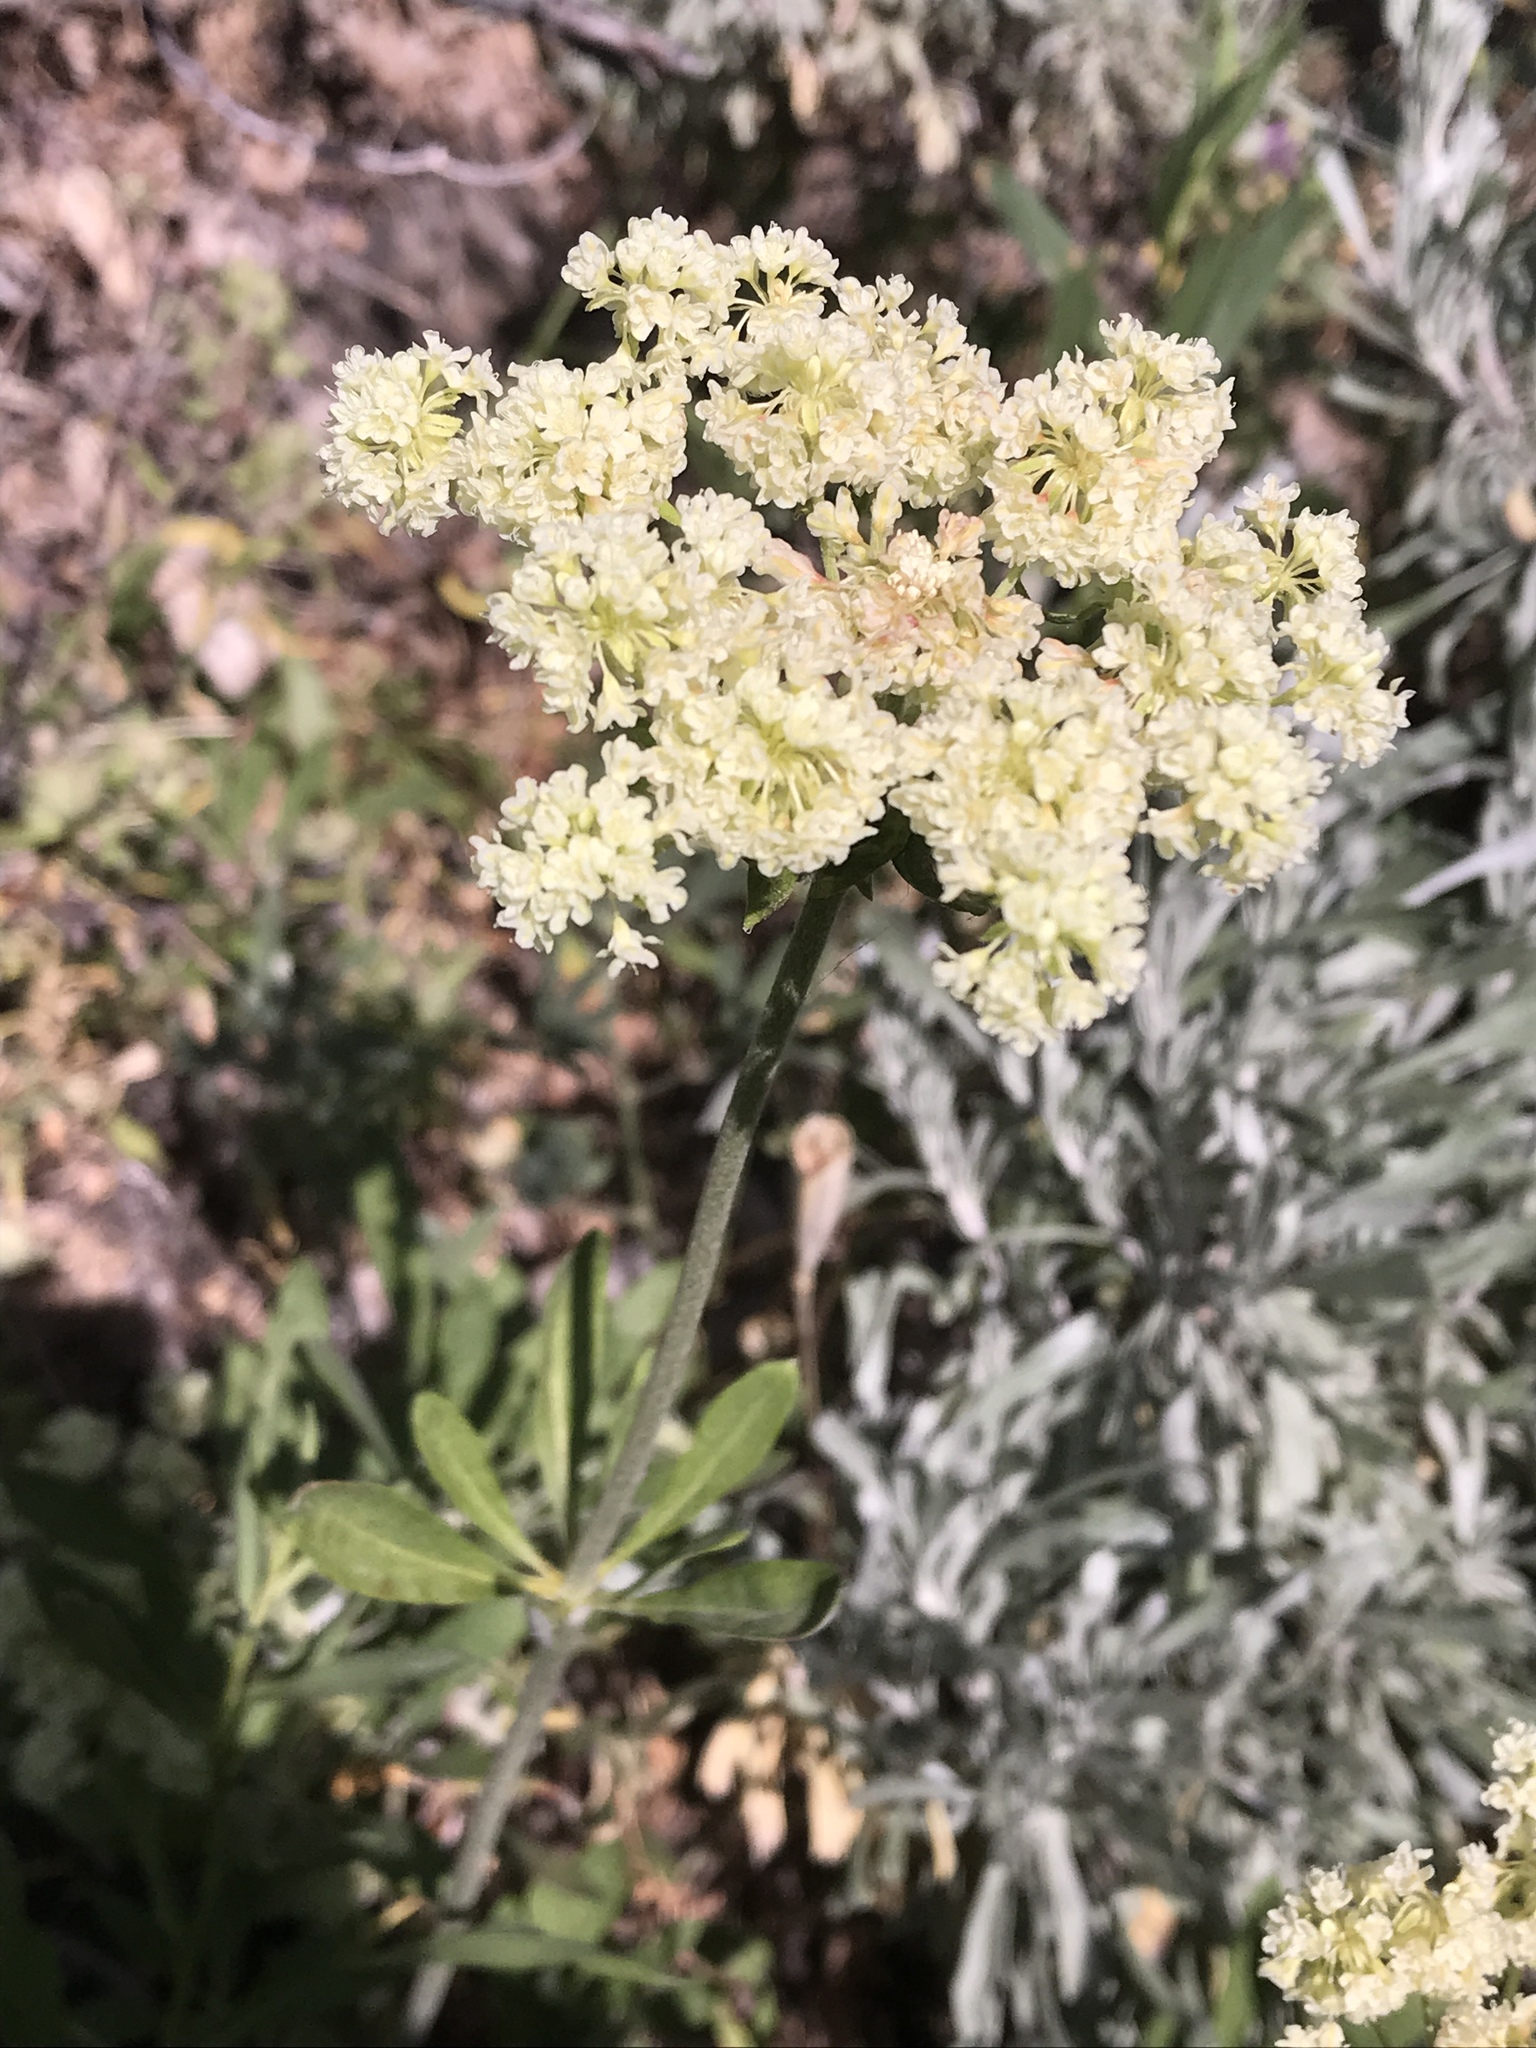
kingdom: Plantae
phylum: Tracheophyta
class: Magnoliopsida
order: Caryophyllales
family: Polygonaceae
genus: Eriogonum
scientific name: Eriogonum heracleoides
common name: Wyeth's buckwheat
